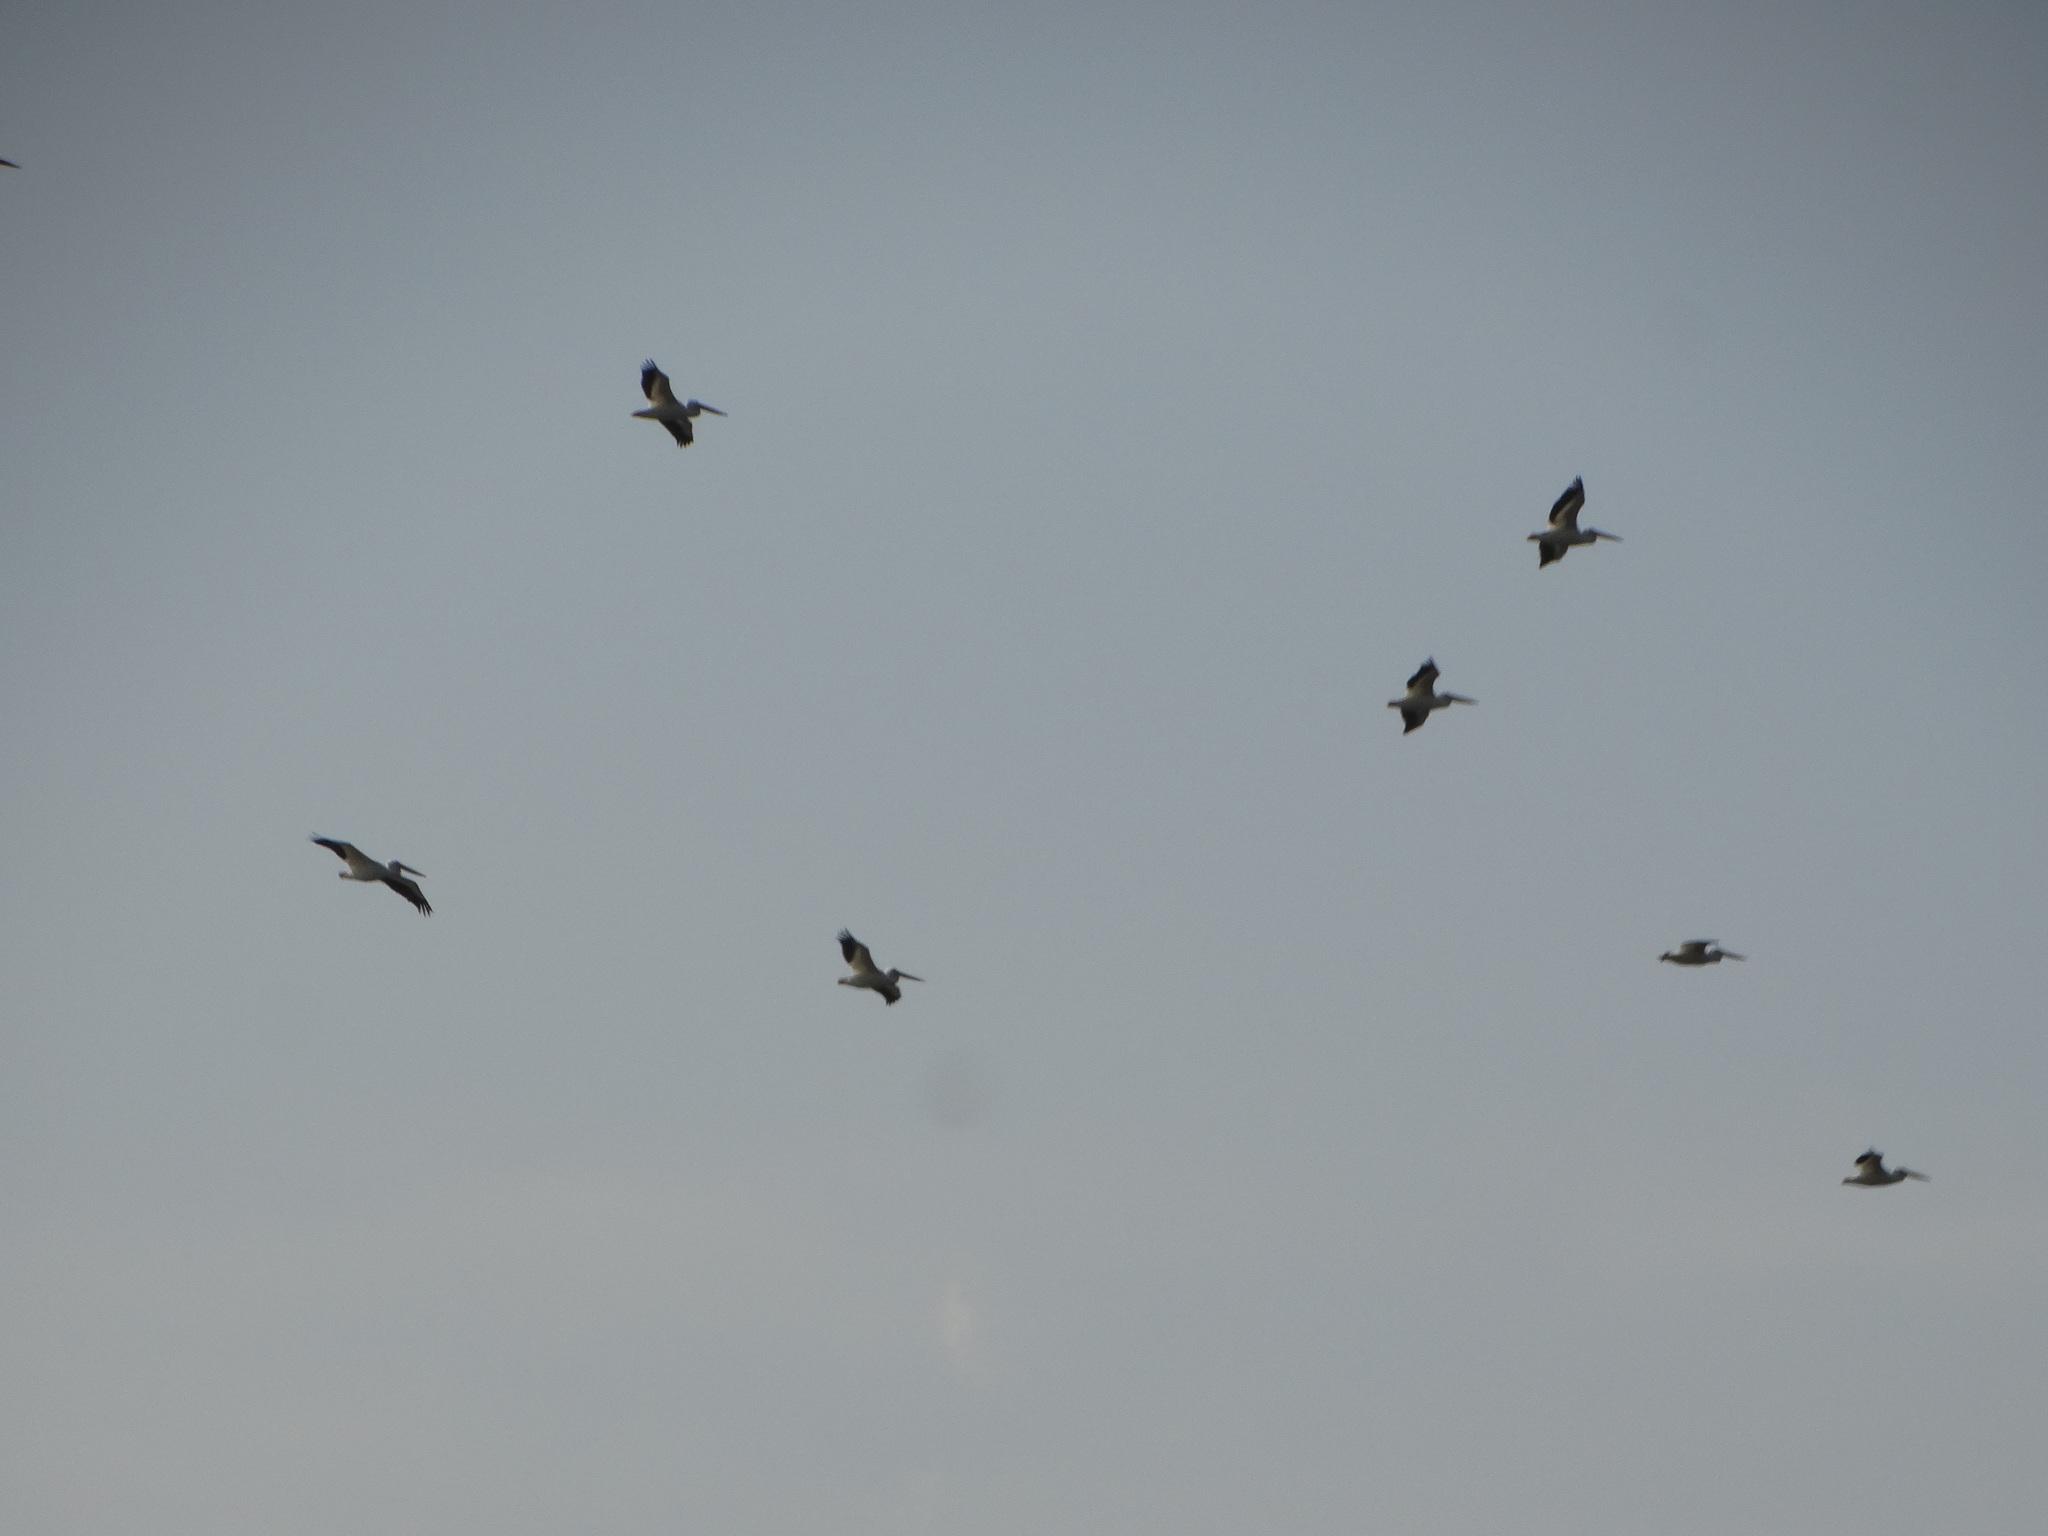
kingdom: Animalia
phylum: Chordata
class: Aves
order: Pelecaniformes
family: Pelecanidae
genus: Pelecanus
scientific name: Pelecanus erythrorhynchos
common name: American white pelican
